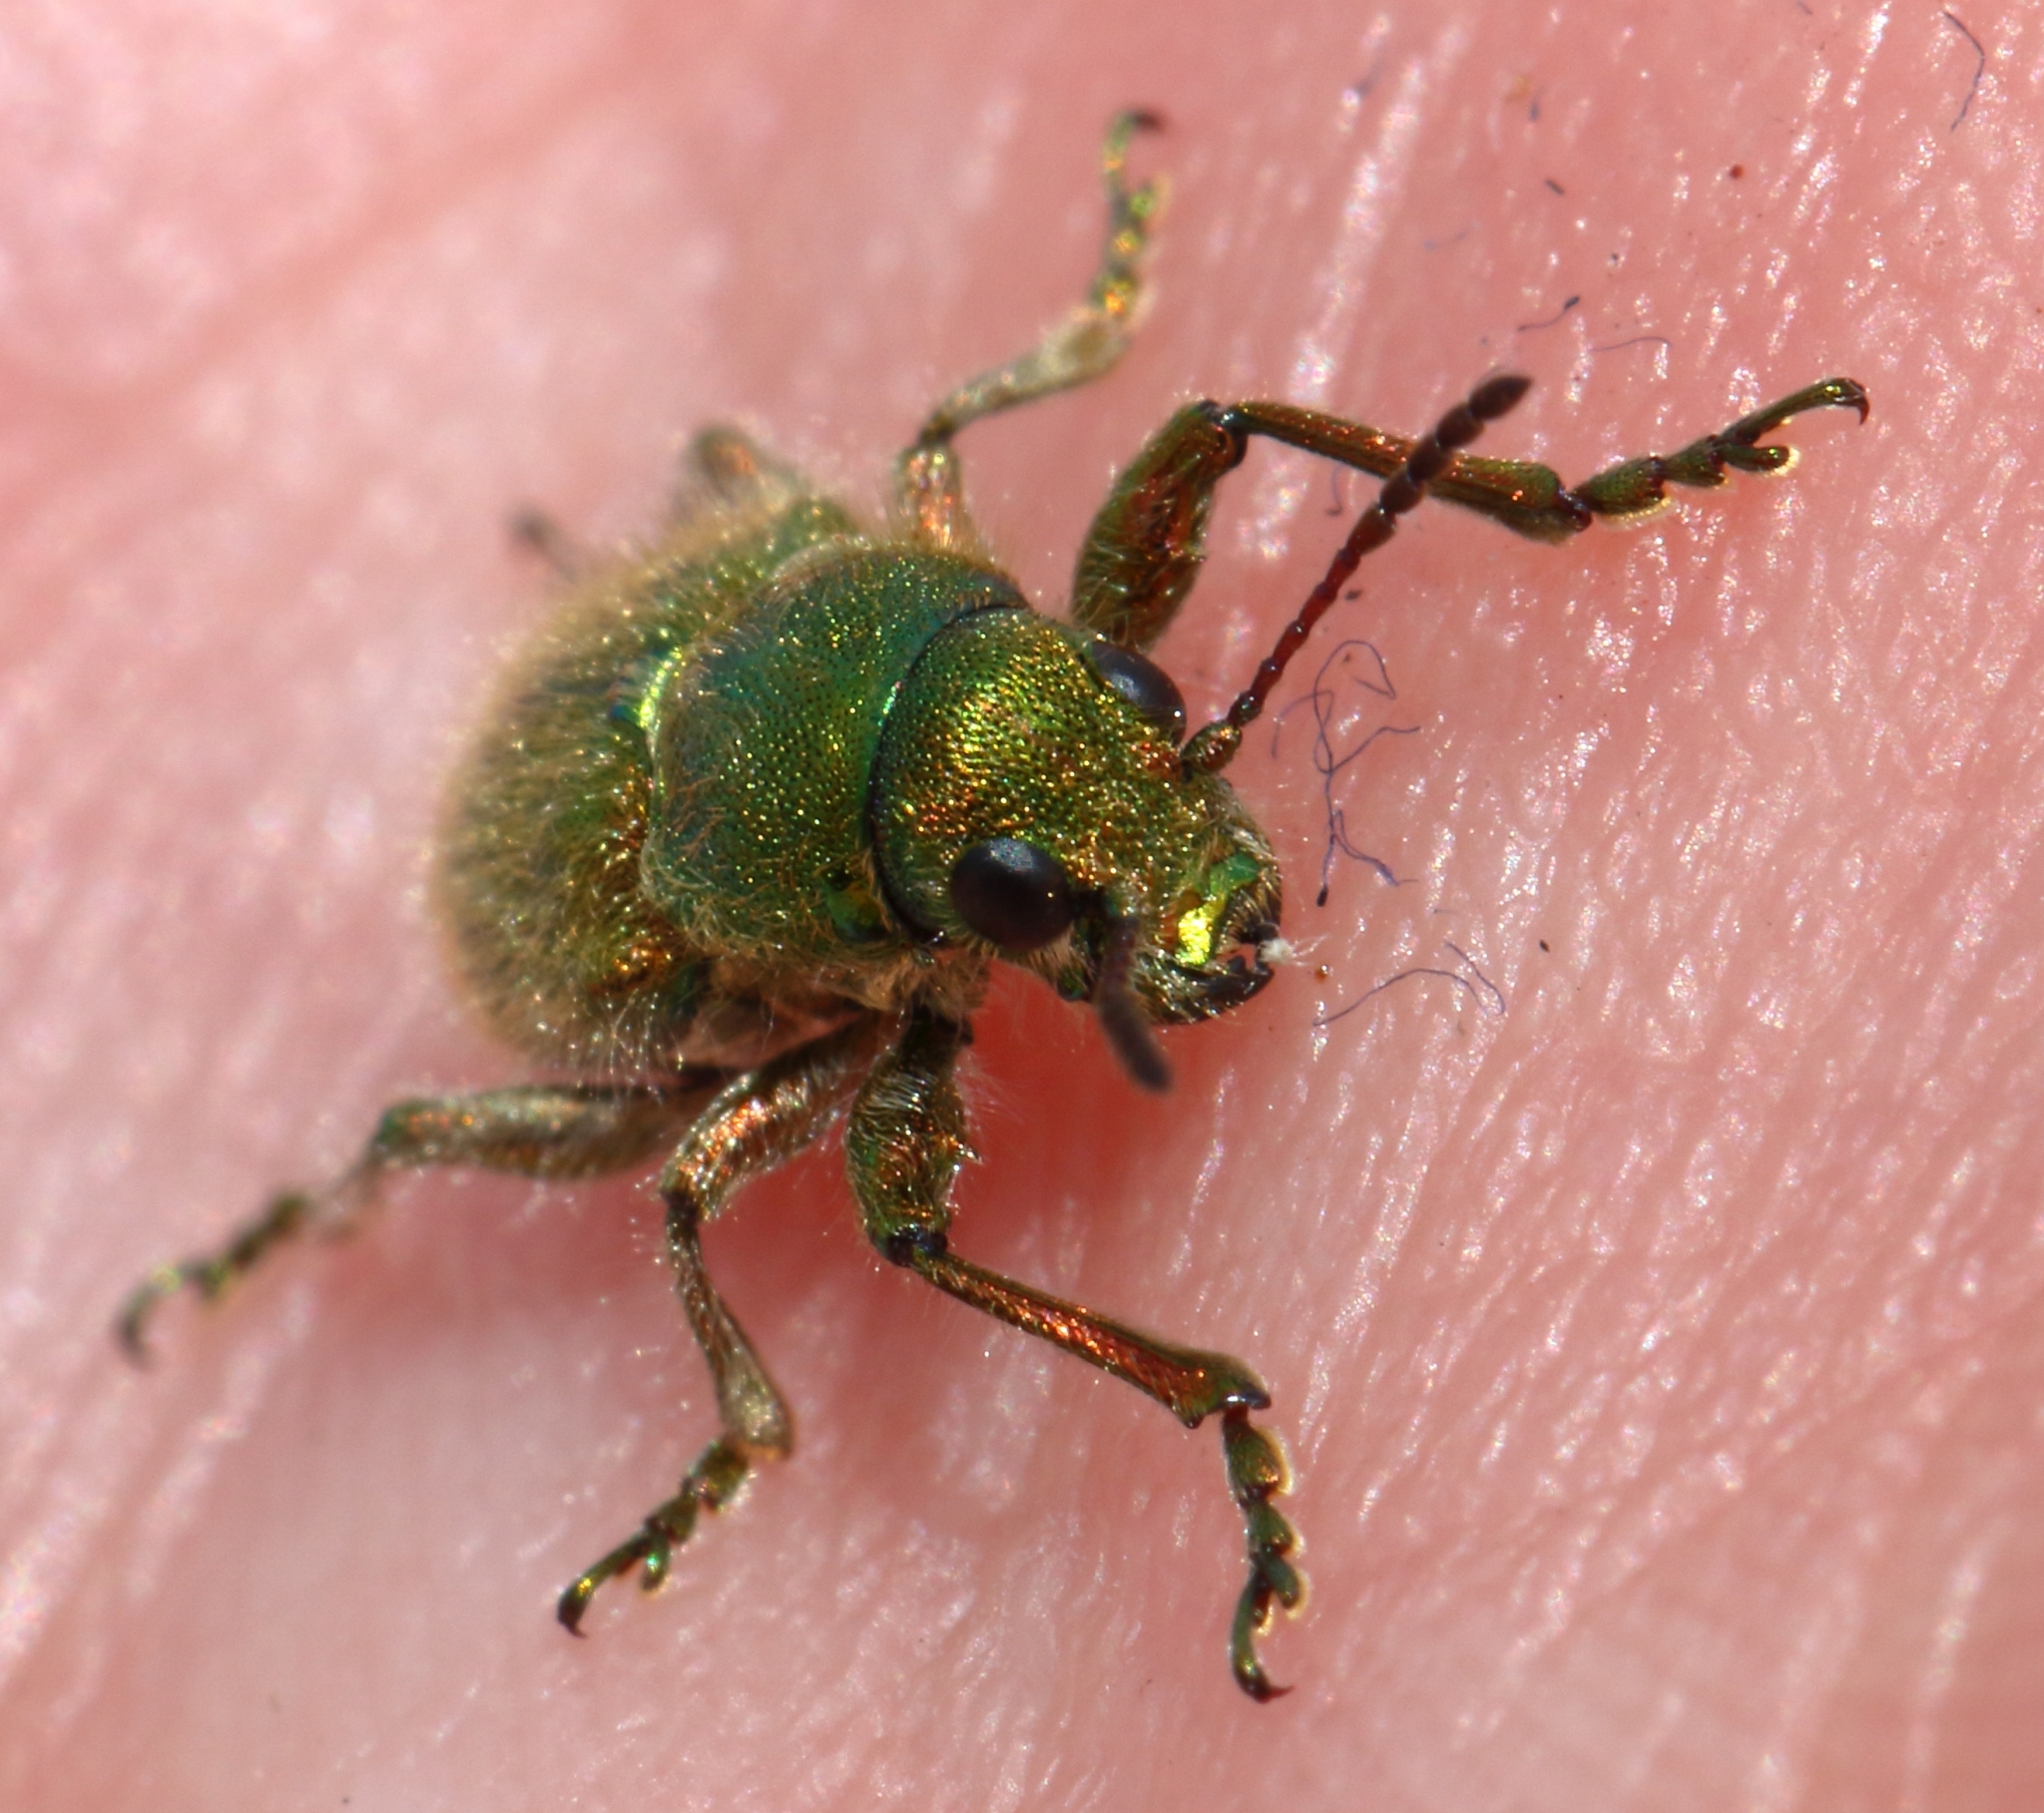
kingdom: Animalia
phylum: Arthropoda
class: Insecta
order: Coleoptera
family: Chrysomelidae
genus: Macrocoma
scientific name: Macrocoma
